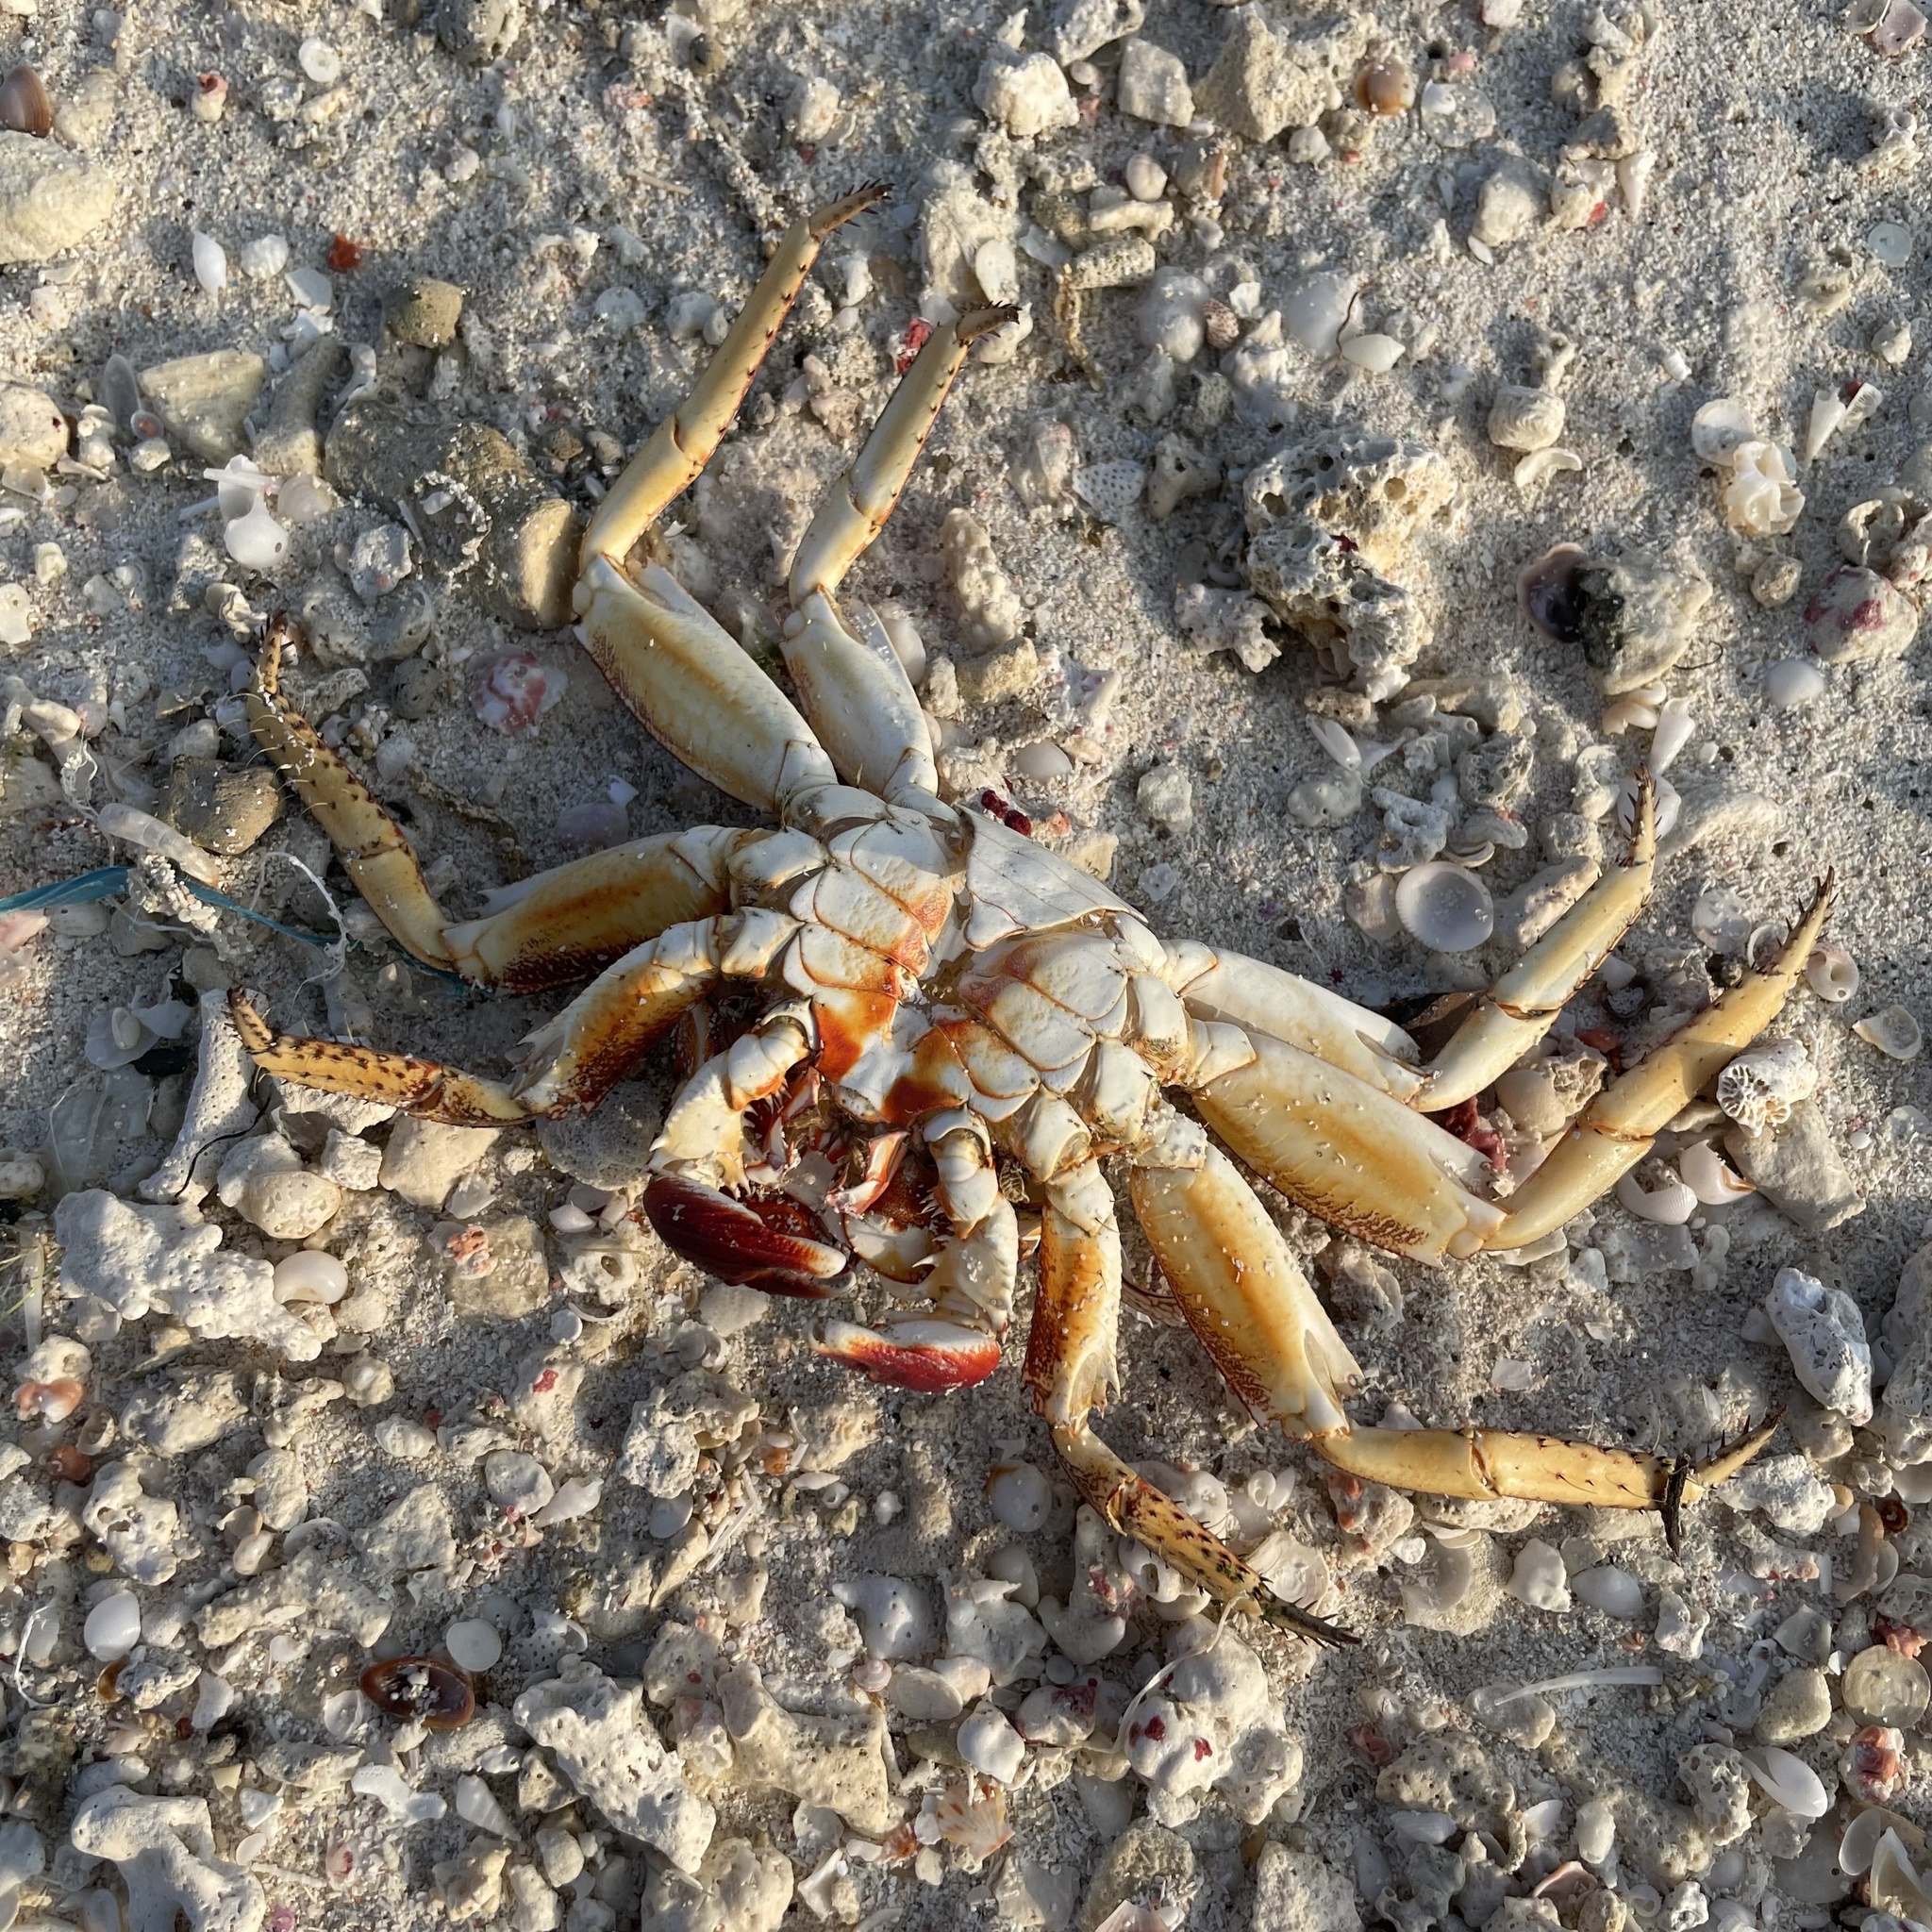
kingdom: Animalia
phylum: Arthropoda
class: Malacostraca
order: Decapoda
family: Grapsidae
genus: Grapsus
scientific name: Grapsus tenuicrustatus
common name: Natal lightfoot crab
